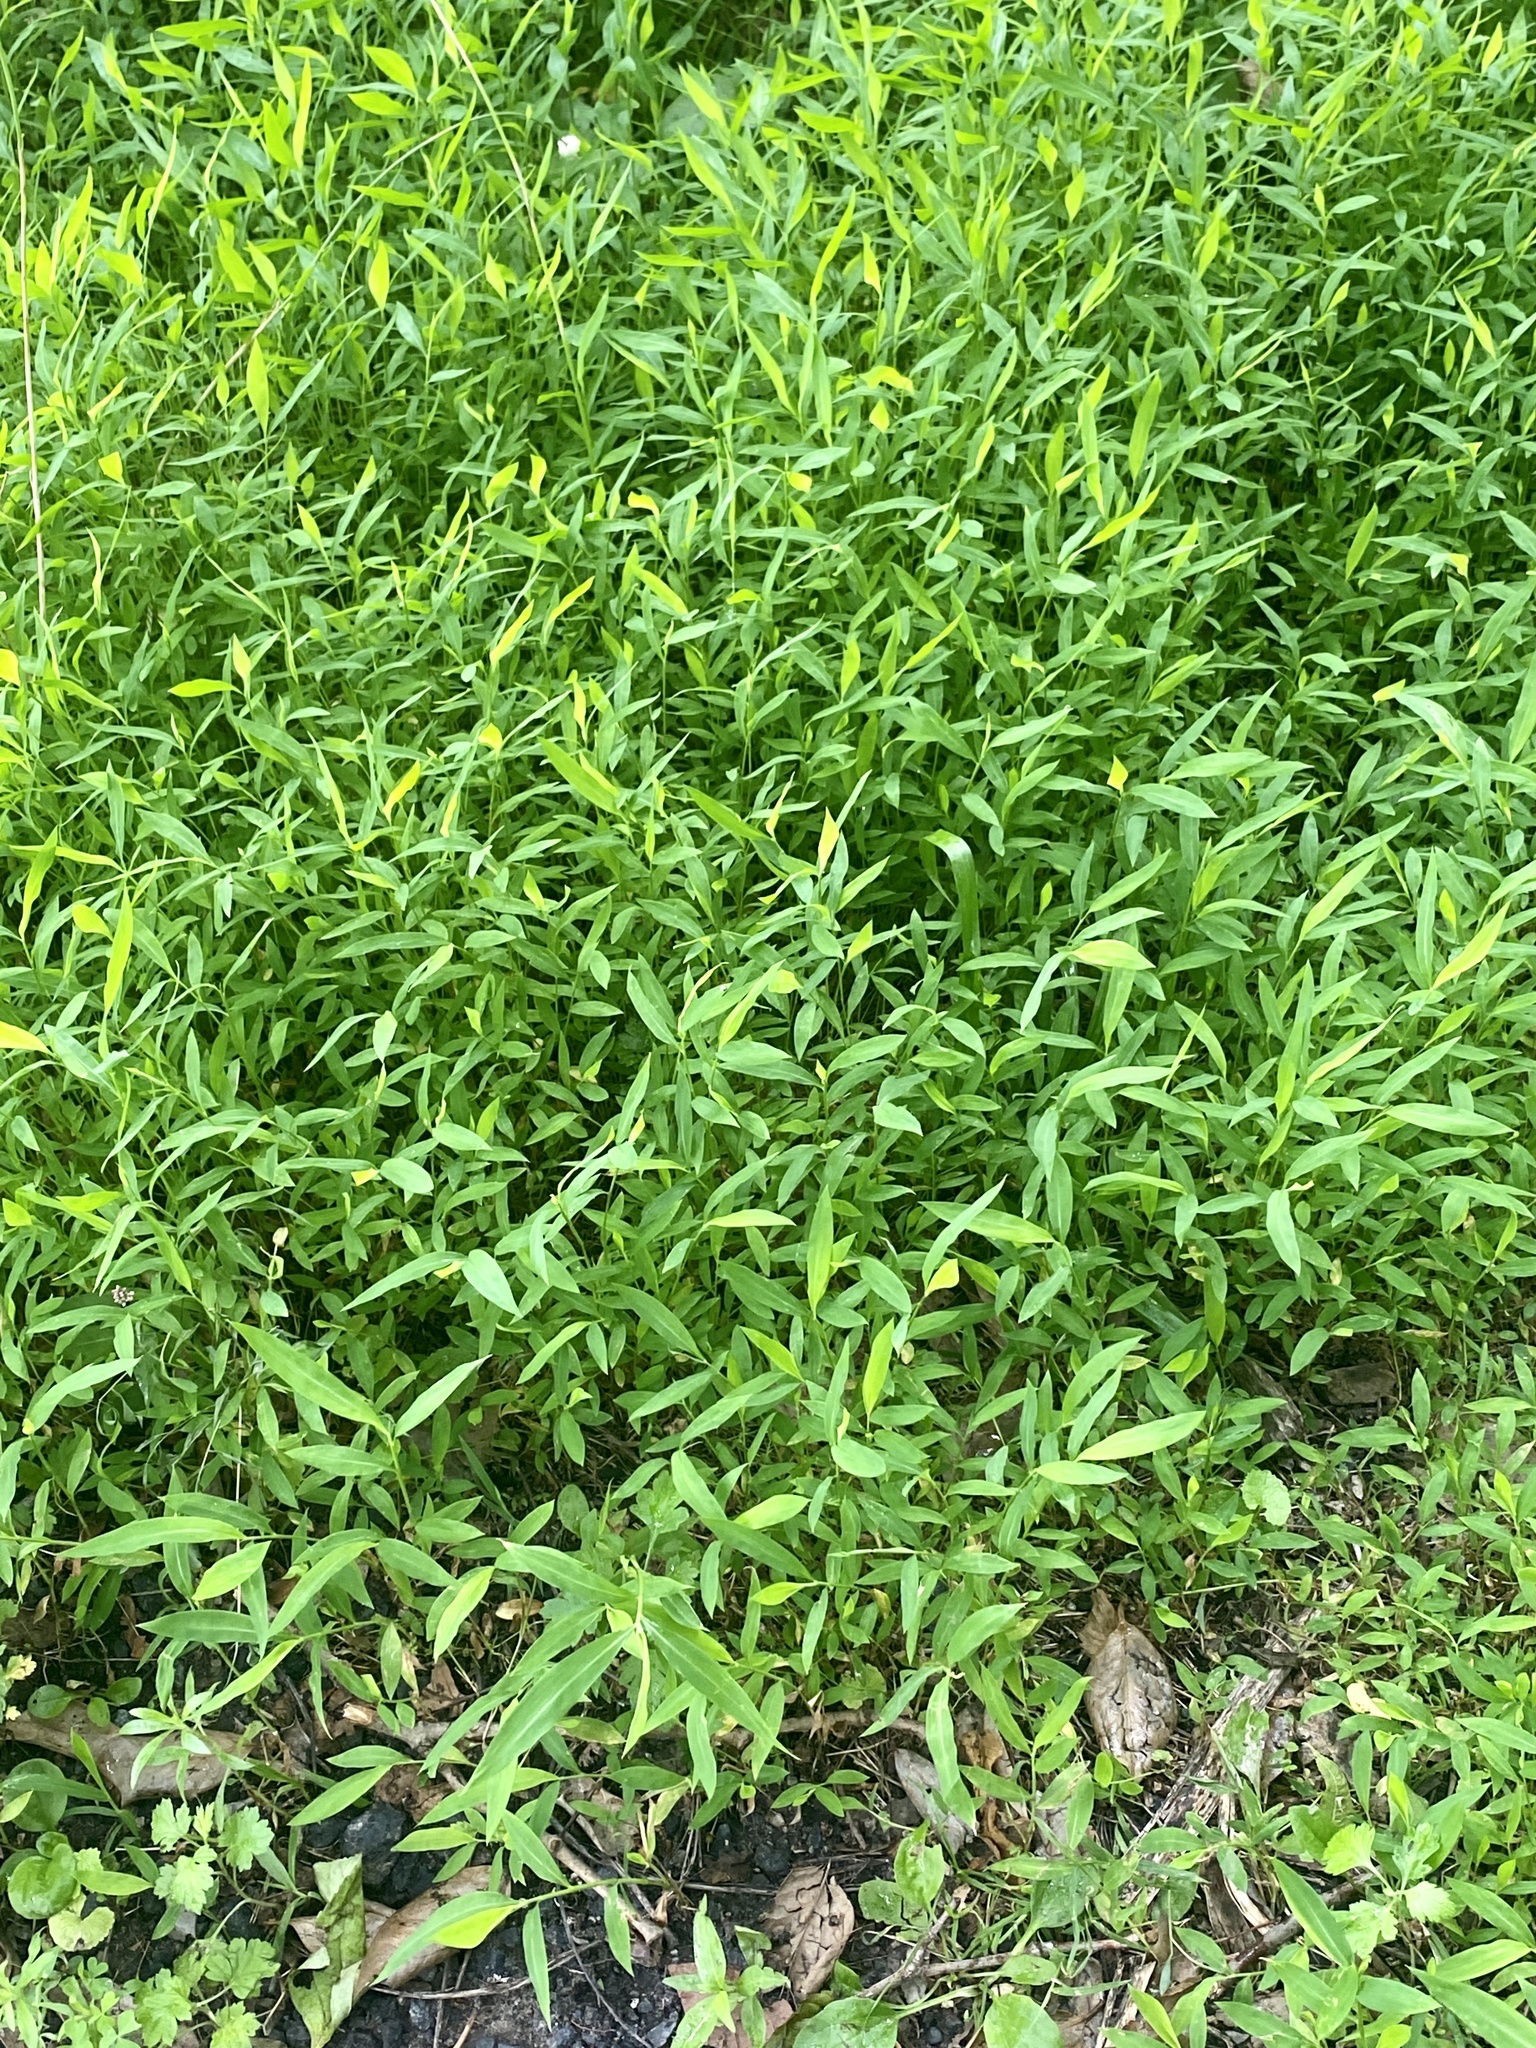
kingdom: Plantae
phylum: Tracheophyta
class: Liliopsida
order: Poales
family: Poaceae
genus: Microstegium
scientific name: Microstegium vimineum
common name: Japanese stiltgrass
